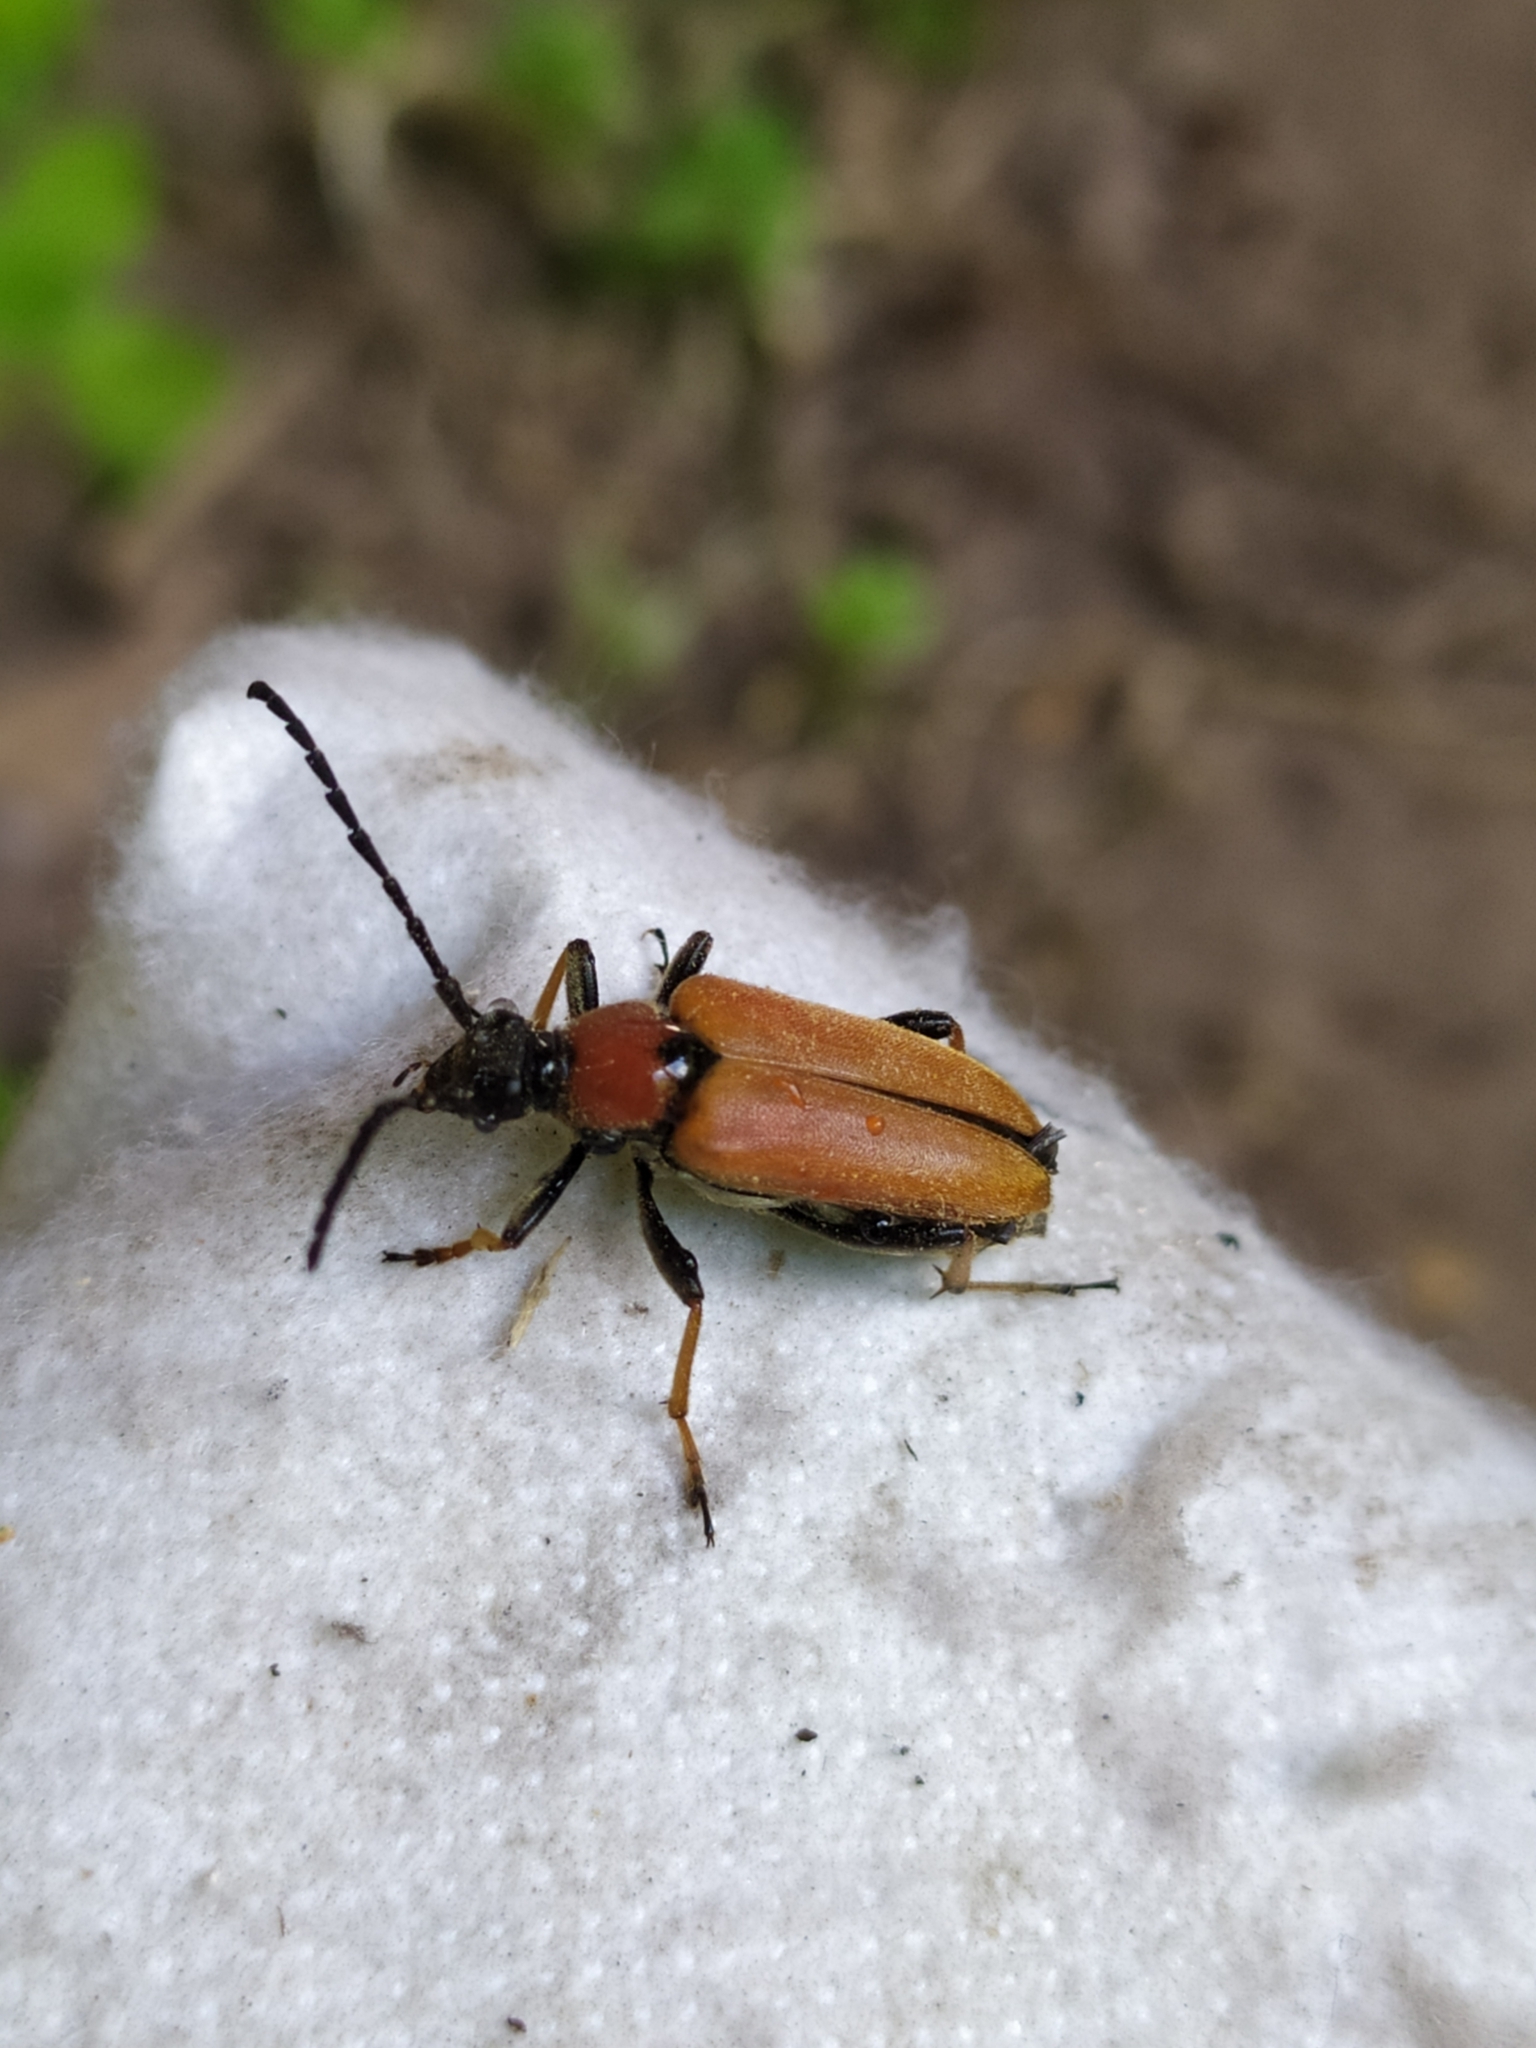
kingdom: Animalia
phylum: Arthropoda
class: Insecta
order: Coleoptera
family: Cerambycidae
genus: Stictoleptura
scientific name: Stictoleptura rubra
